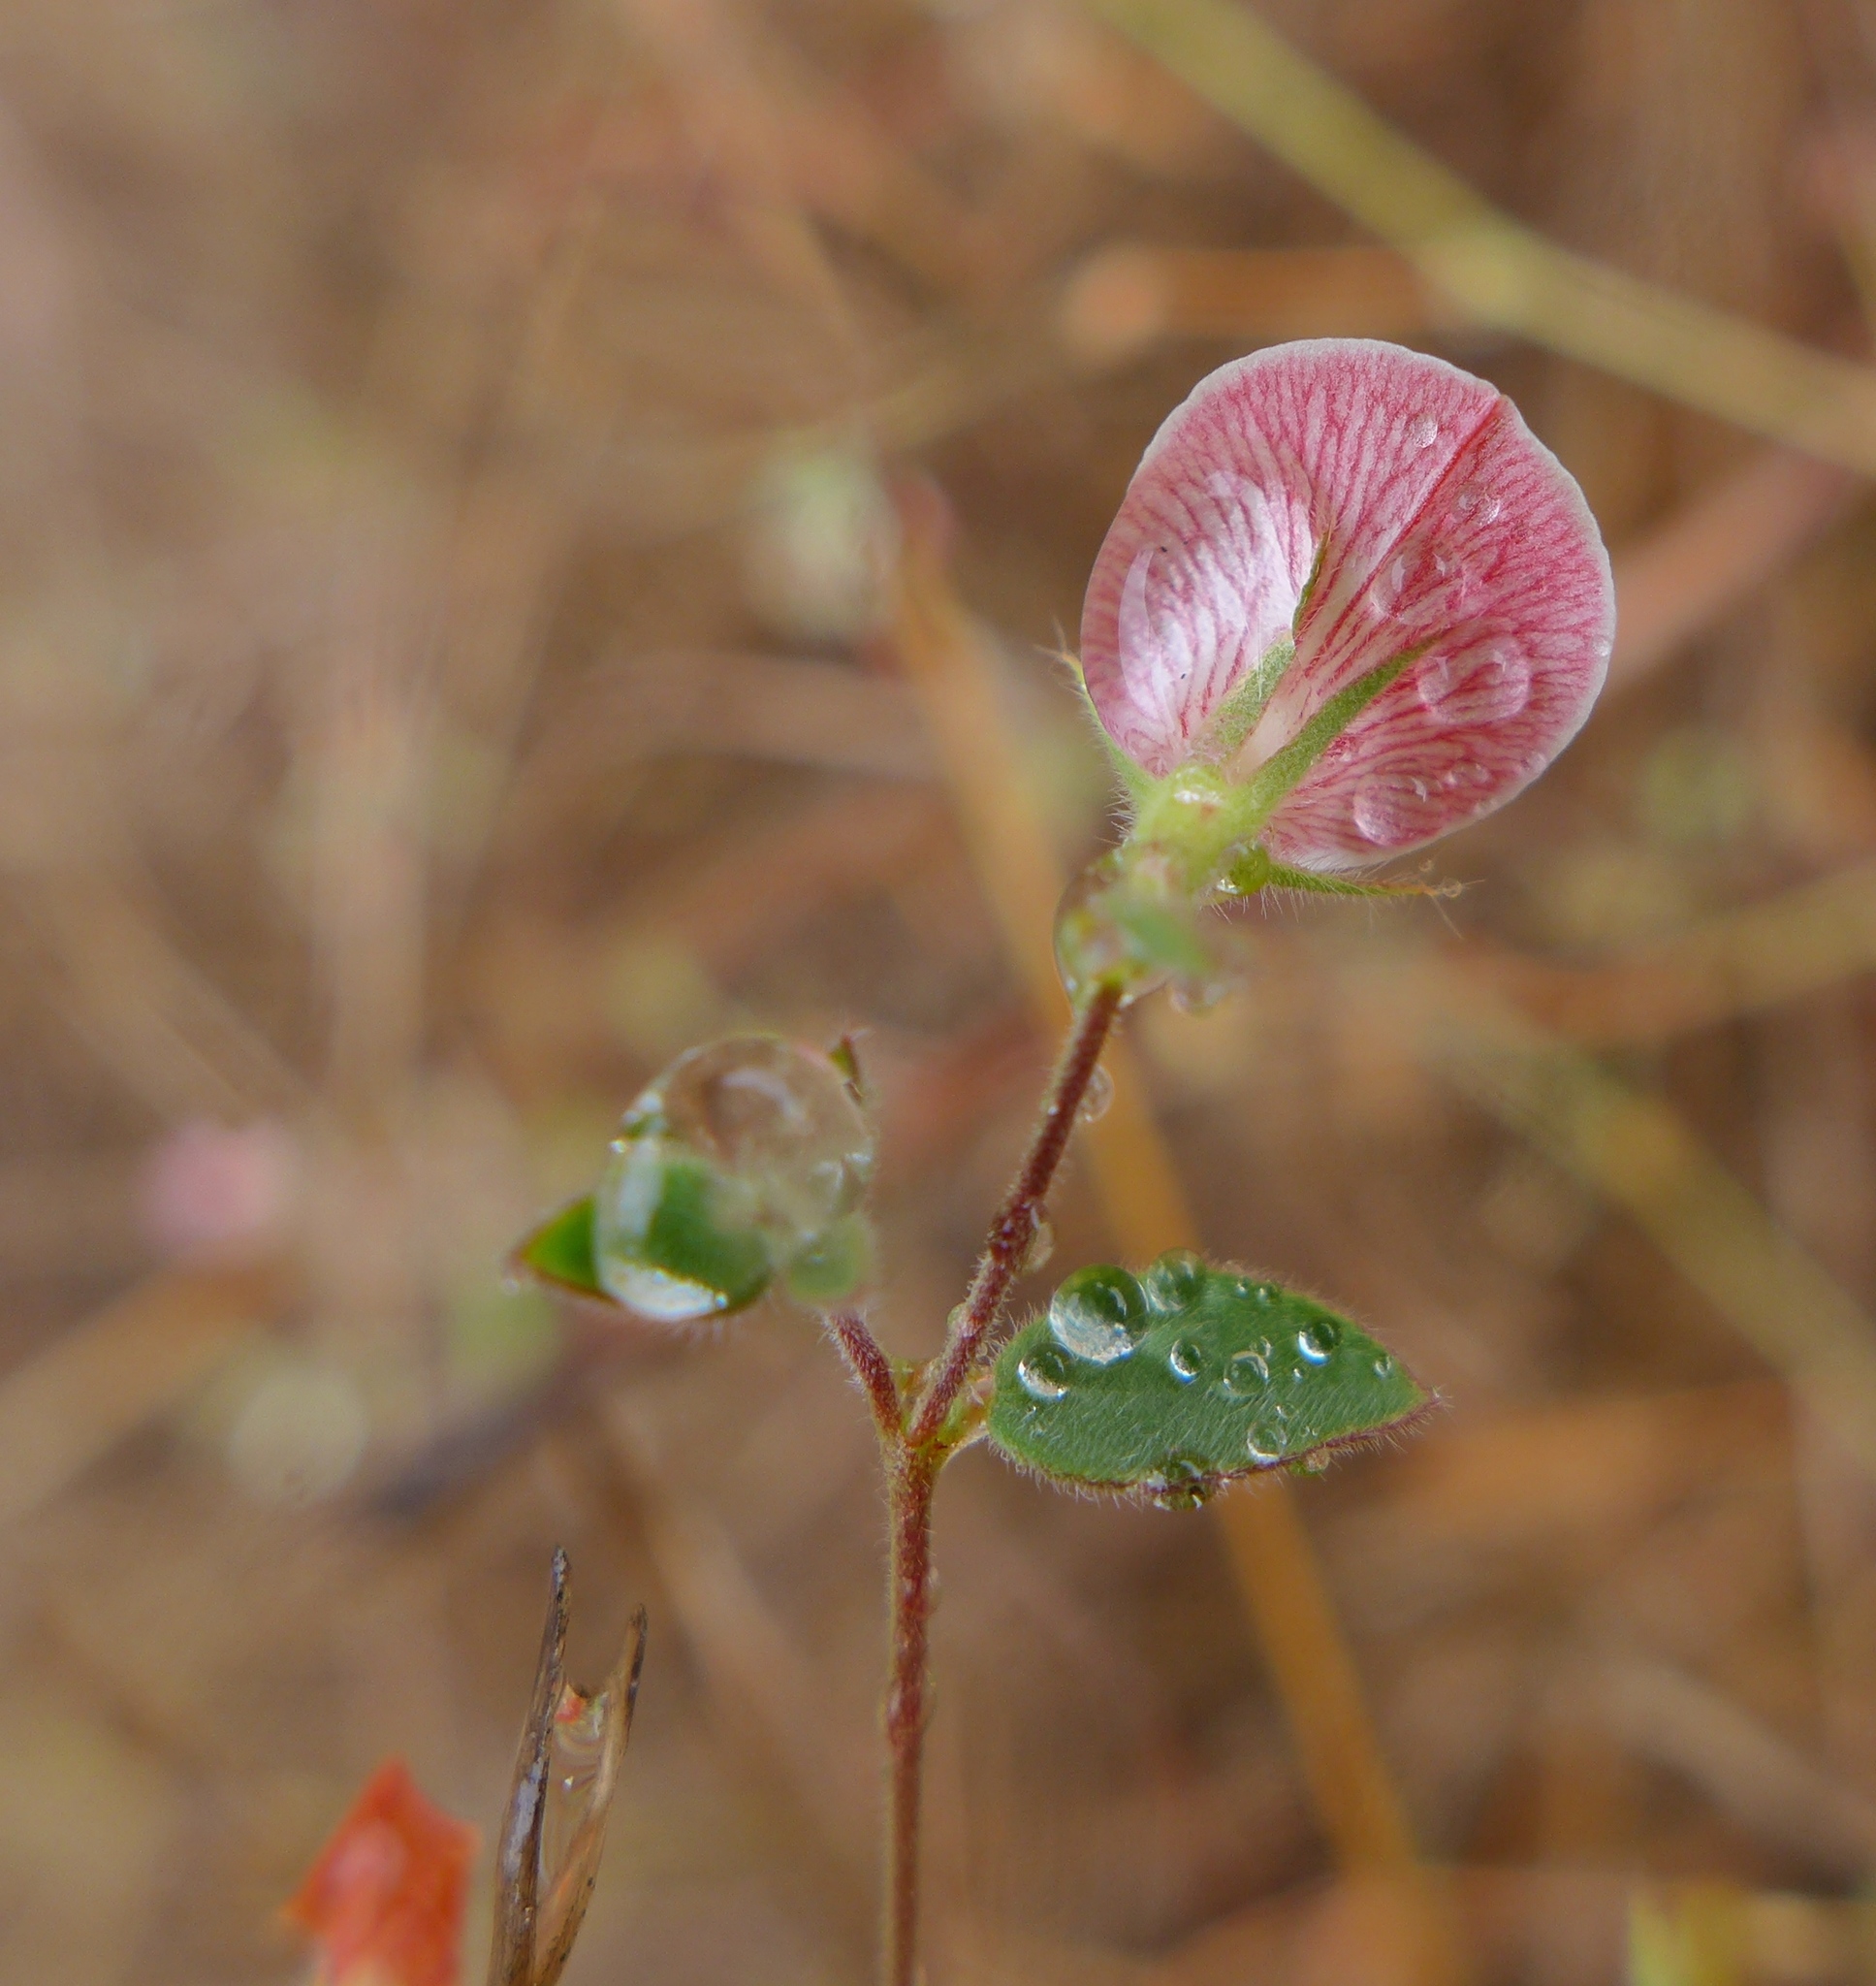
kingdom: Plantae
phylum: Tracheophyta
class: Magnoliopsida
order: Fabales
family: Fabaceae
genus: Acmispon
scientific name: Acmispon americanus
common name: American bird's-foot trefoil
